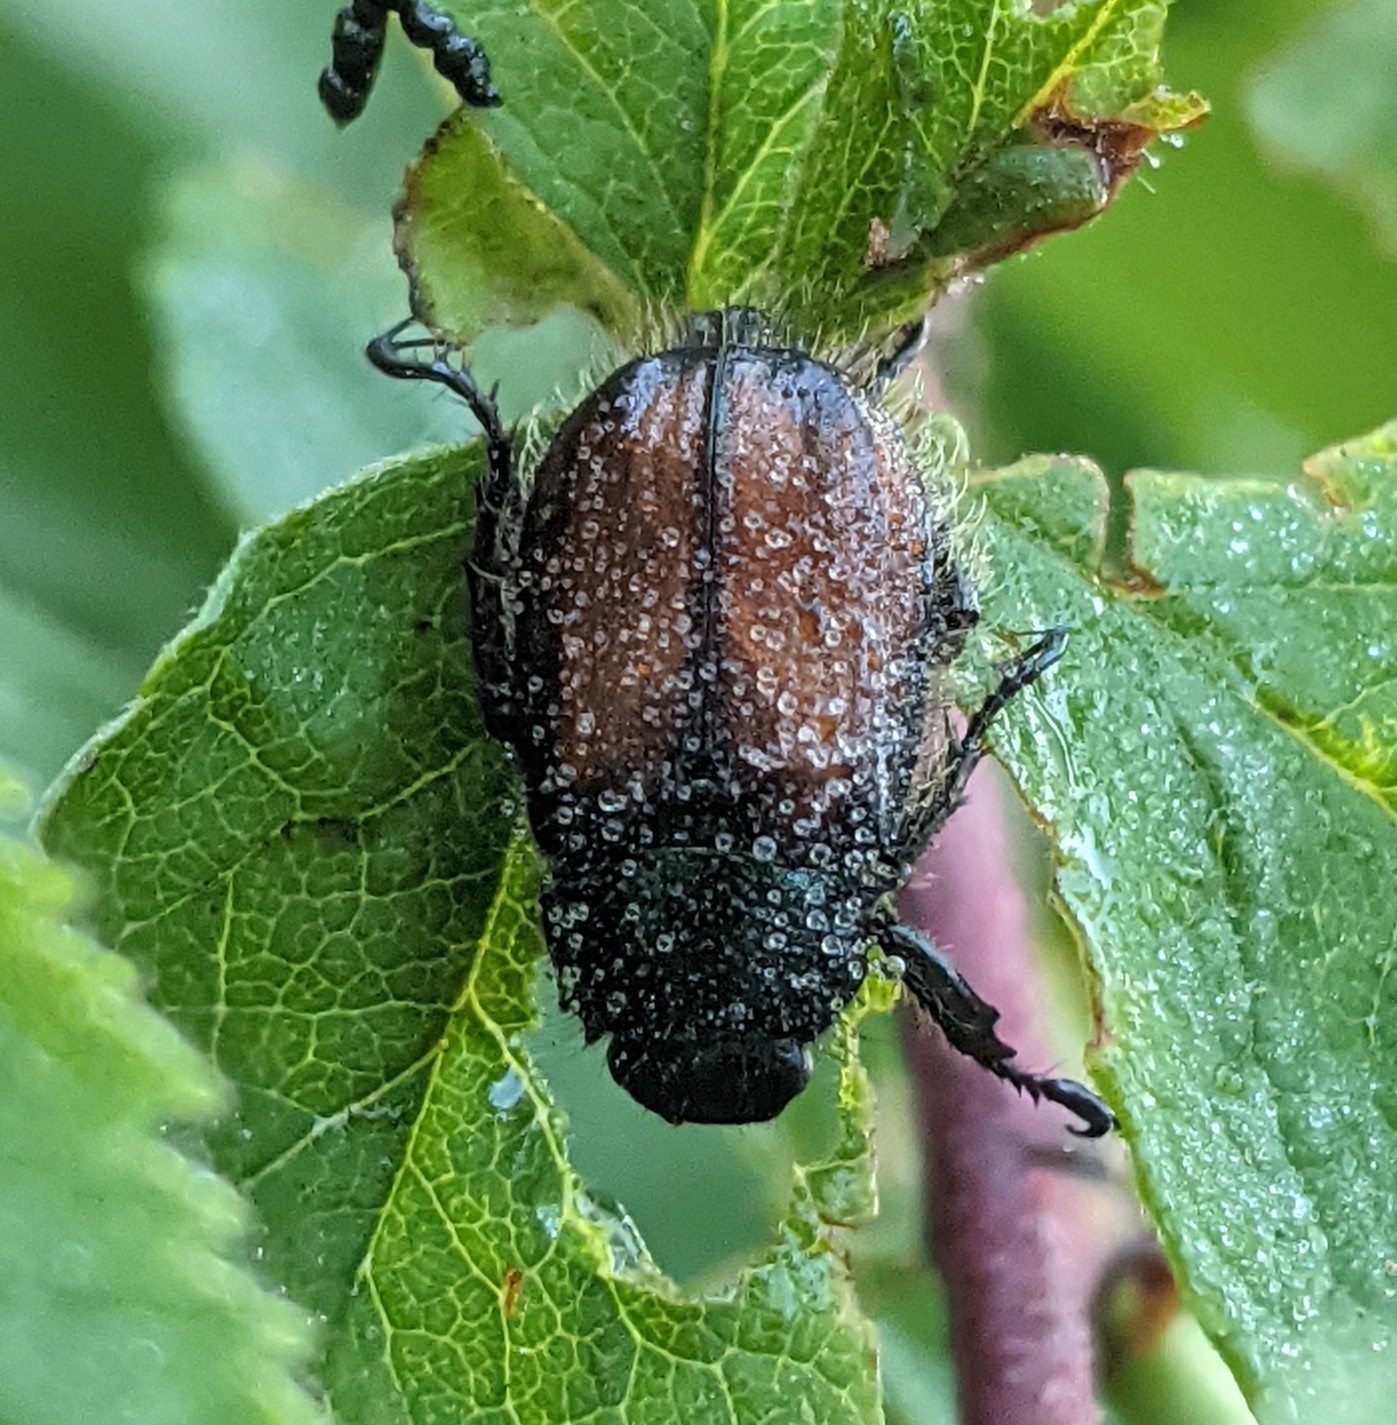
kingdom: Animalia
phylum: Arthropoda
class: Insecta
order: Coleoptera
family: Scarabaeidae
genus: Phyllopertha
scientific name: Phyllopertha horticola
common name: Garden chafer
